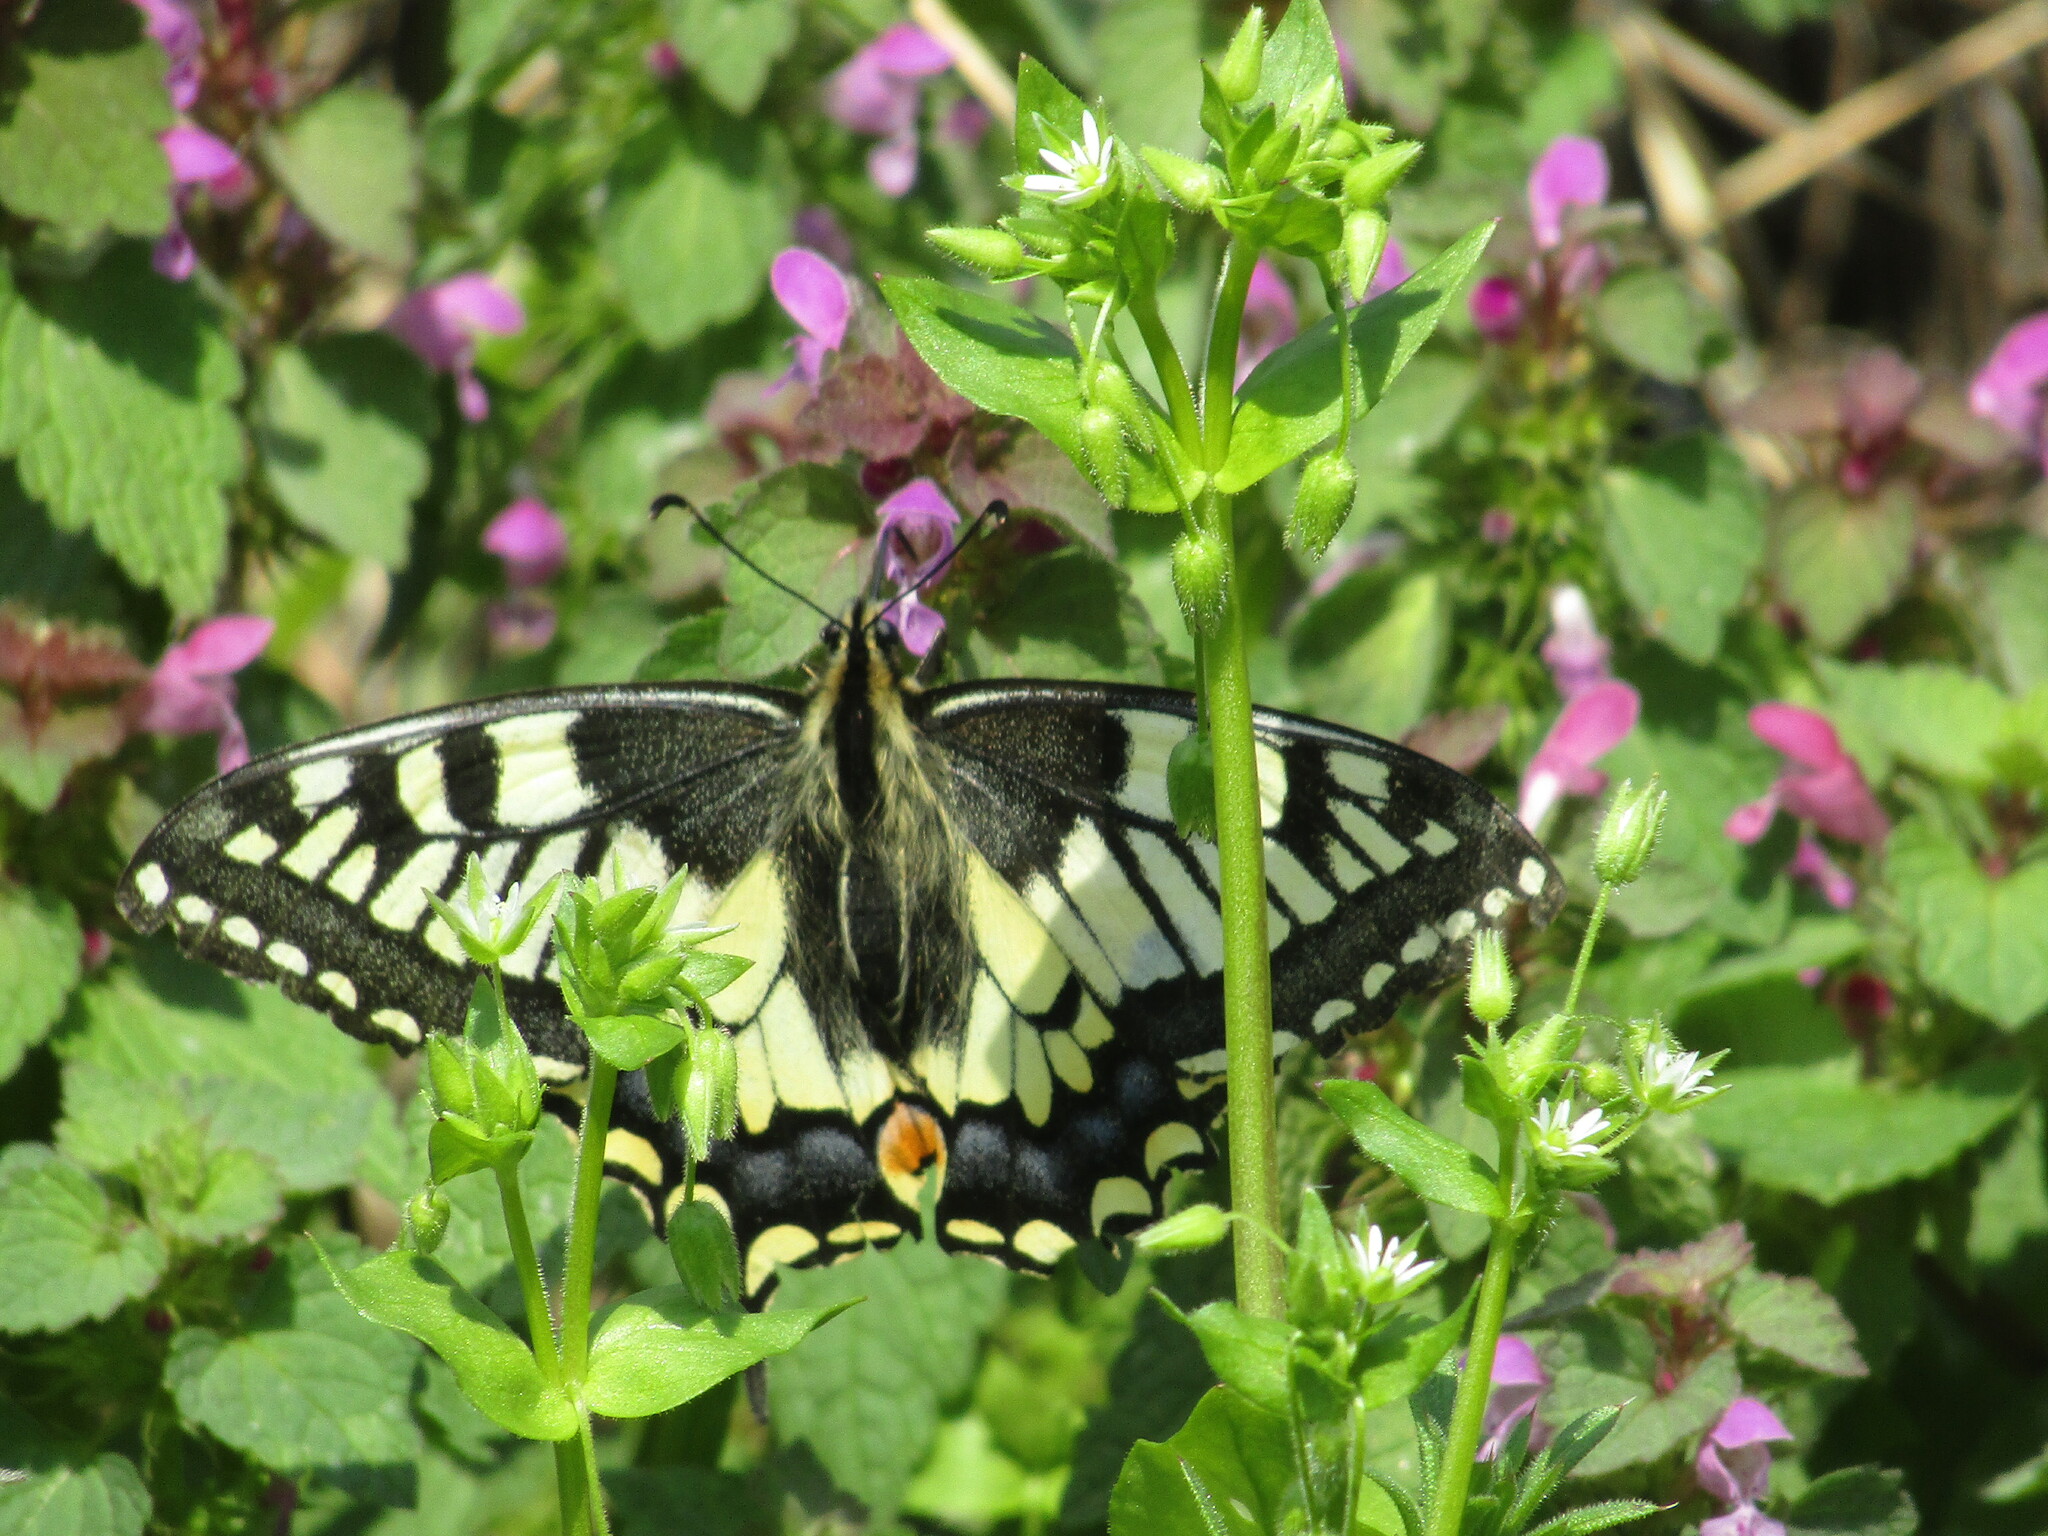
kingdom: Animalia
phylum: Arthropoda
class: Insecta
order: Lepidoptera
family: Papilionidae
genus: Papilio
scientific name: Papilio machaon
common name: Swallowtail
